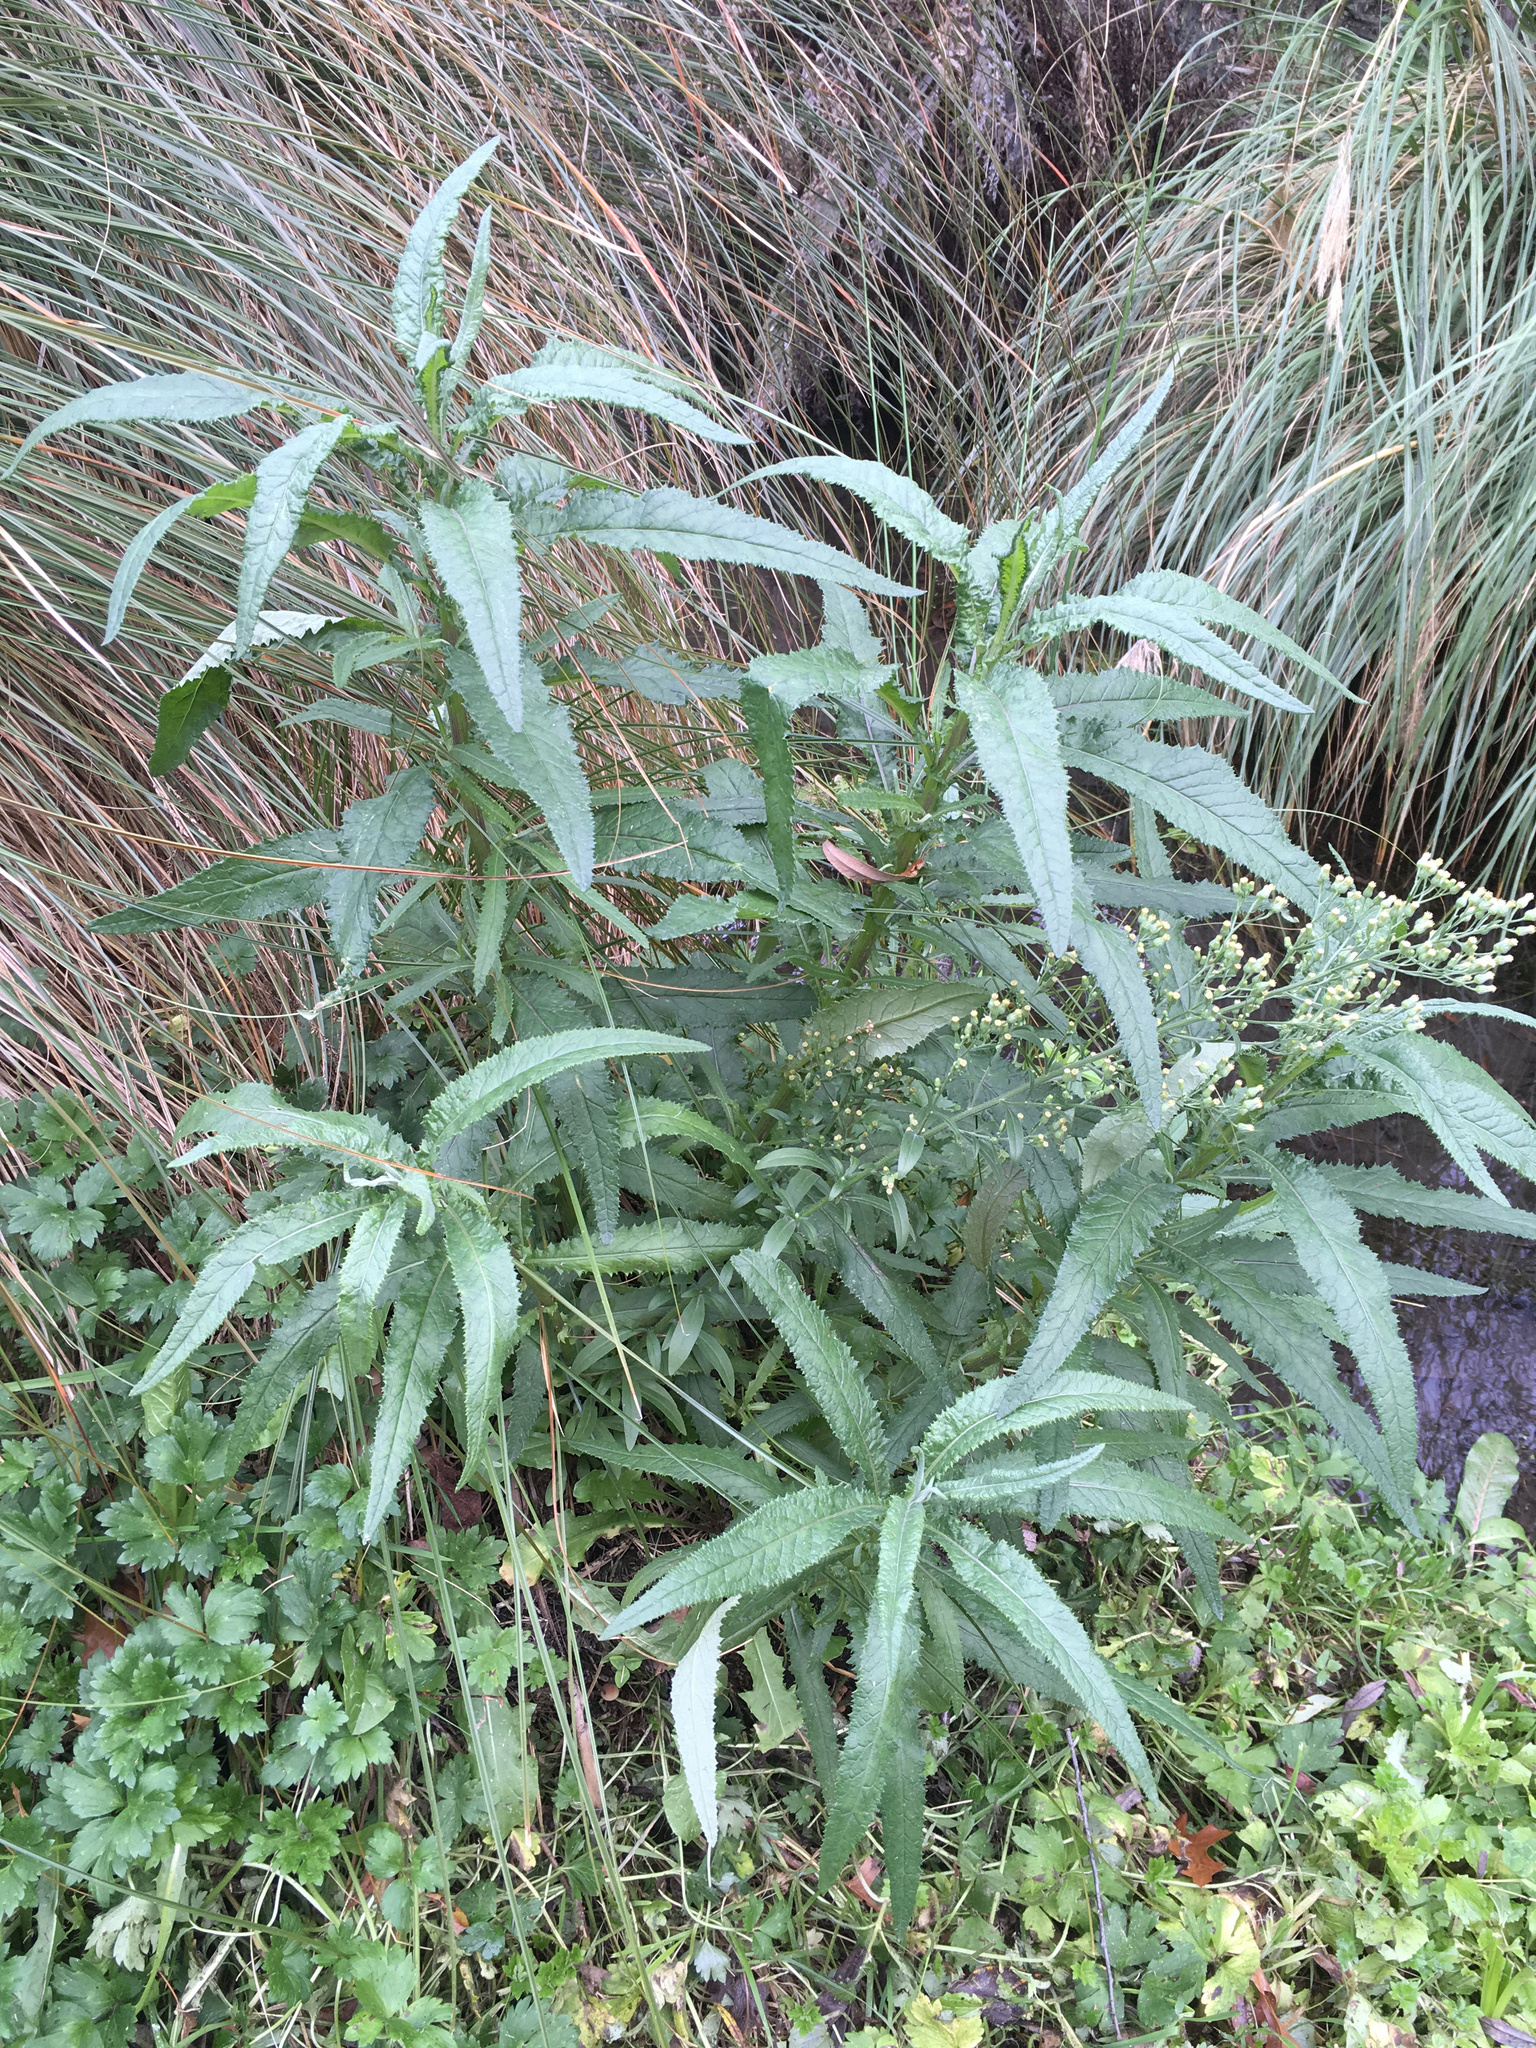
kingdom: Plantae
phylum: Tracheophyta
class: Magnoliopsida
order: Asterales
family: Asteraceae
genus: Senecio
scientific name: Senecio minimus
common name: Toothed fireweed
